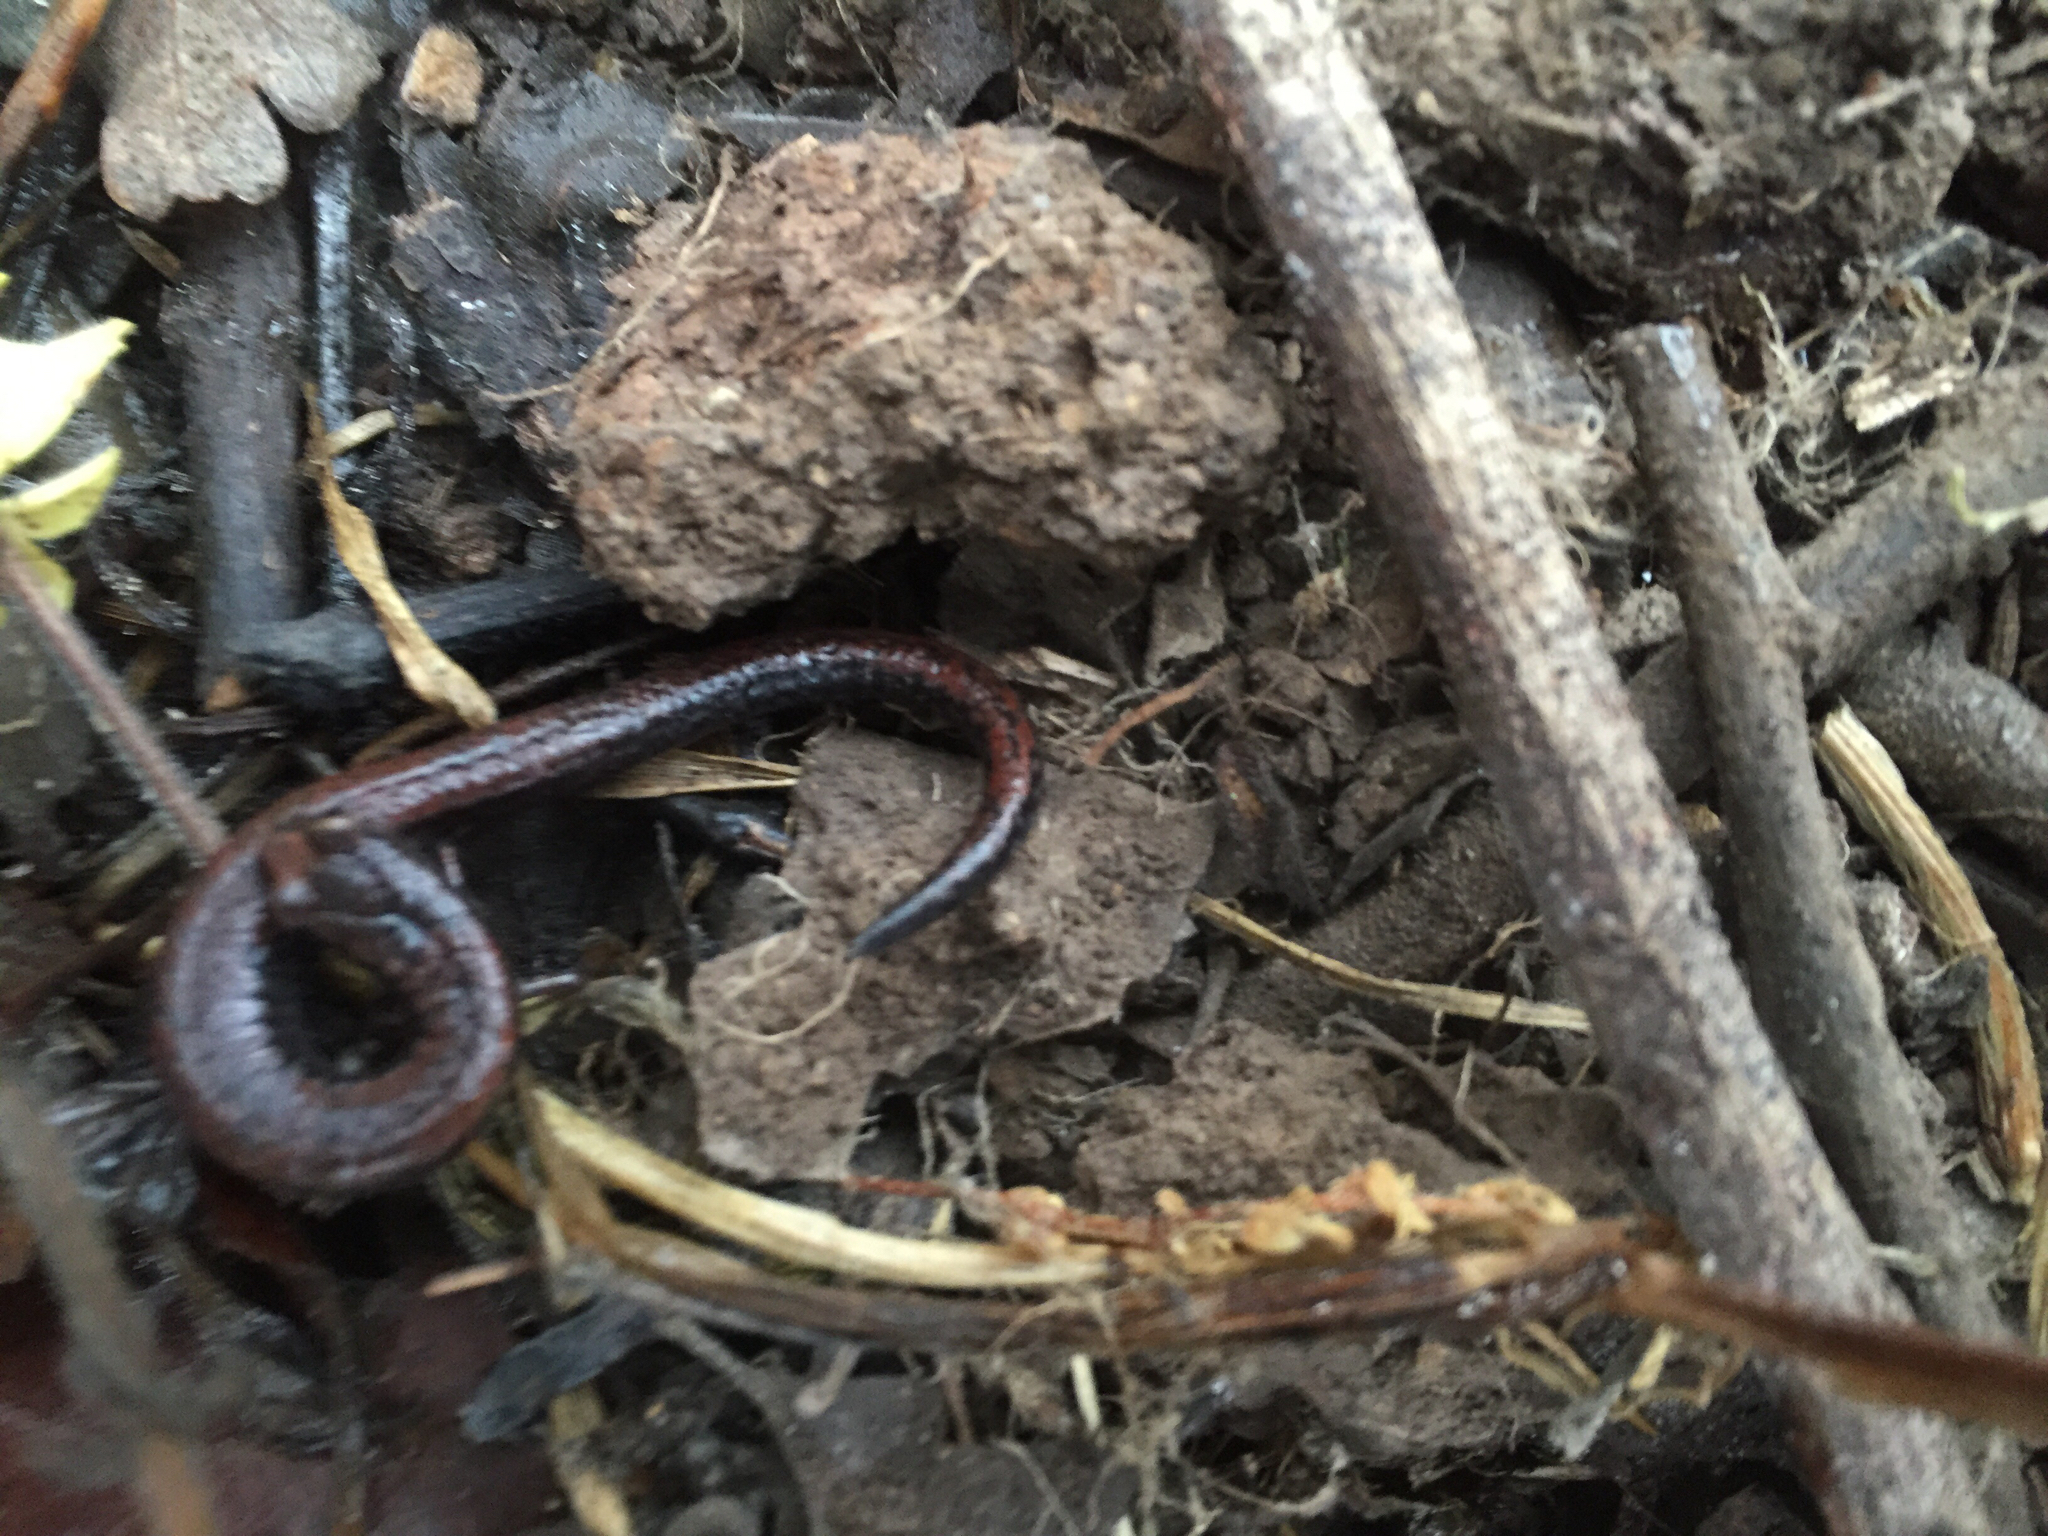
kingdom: Animalia
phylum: Chordata
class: Amphibia
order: Caudata
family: Plethodontidae
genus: Batrachoseps
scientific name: Batrachoseps attenuatus
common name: California slender salamander
